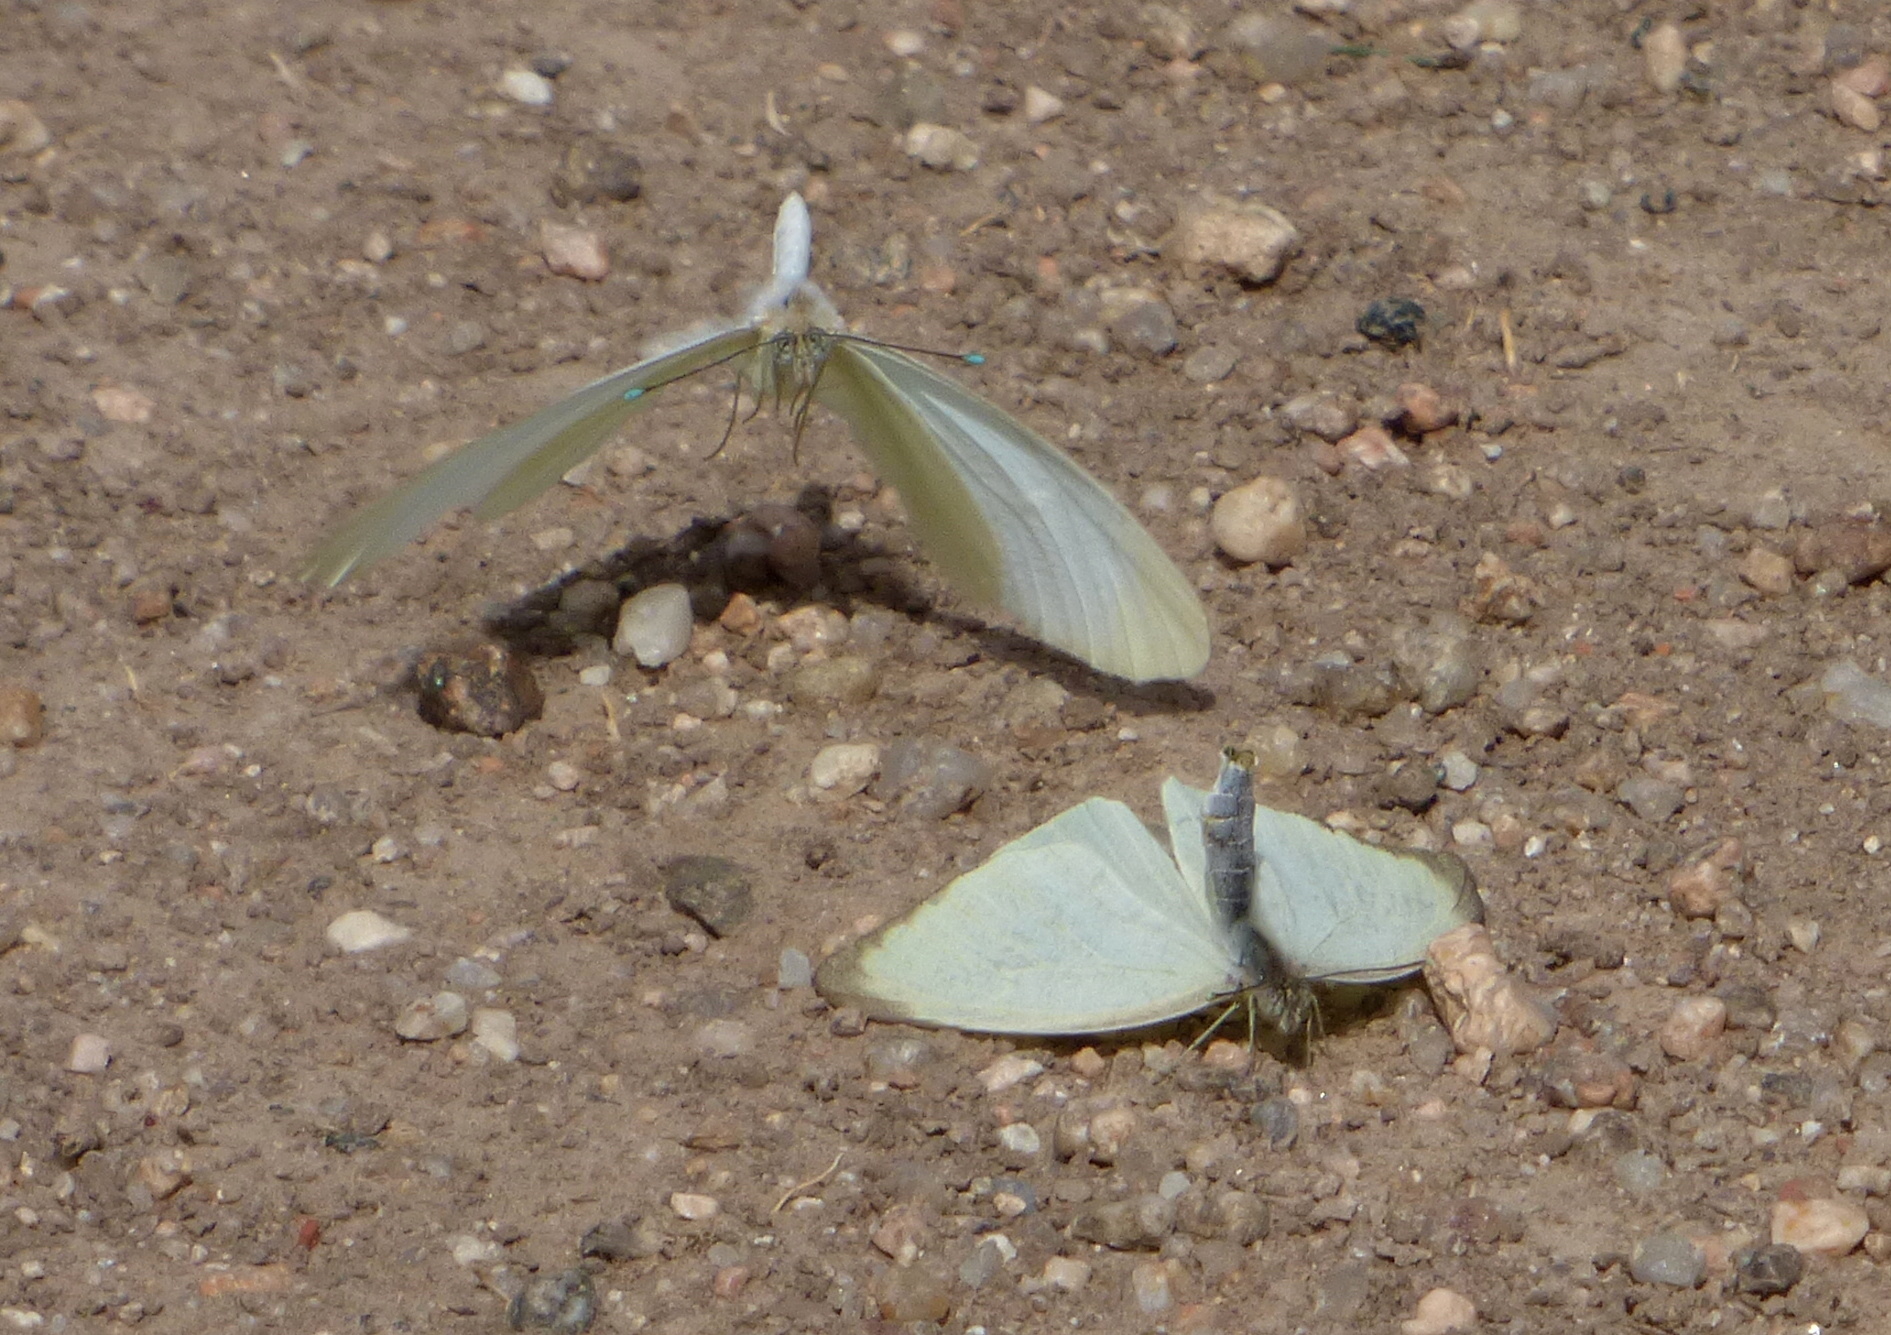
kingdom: Animalia
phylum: Arthropoda
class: Insecta
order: Lepidoptera
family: Pieridae
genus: Ascia
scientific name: Ascia monuste
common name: Great southern white
